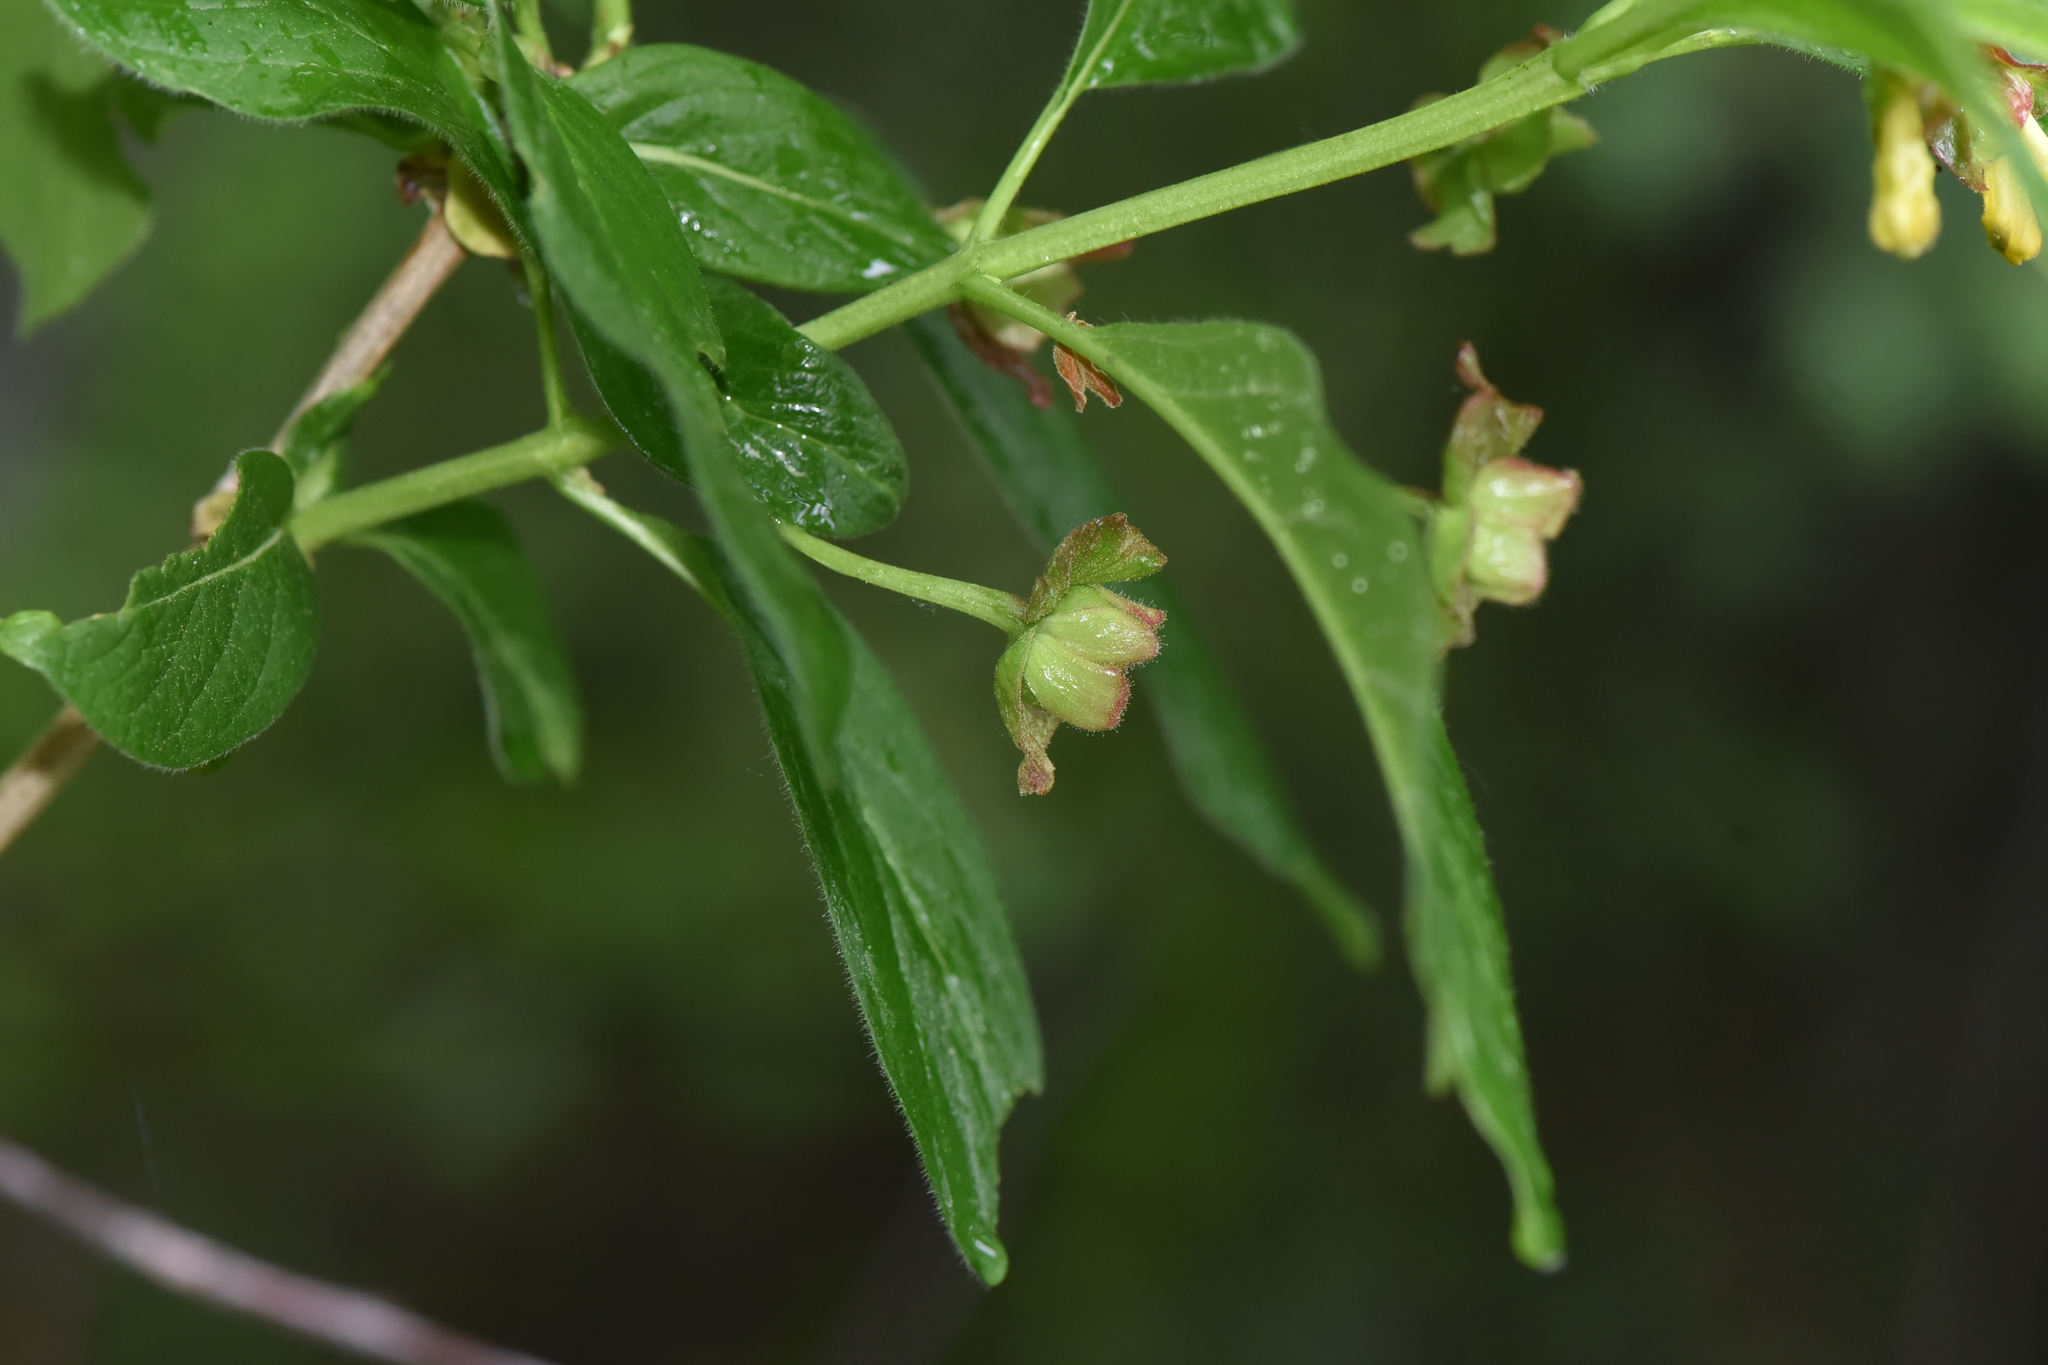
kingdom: Plantae
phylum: Tracheophyta
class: Magnoliopsida
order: Dipsacales
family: Caprifoliaceae
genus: Lonicera
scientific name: Lonicera involucrata
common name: Californian honeysuckle
